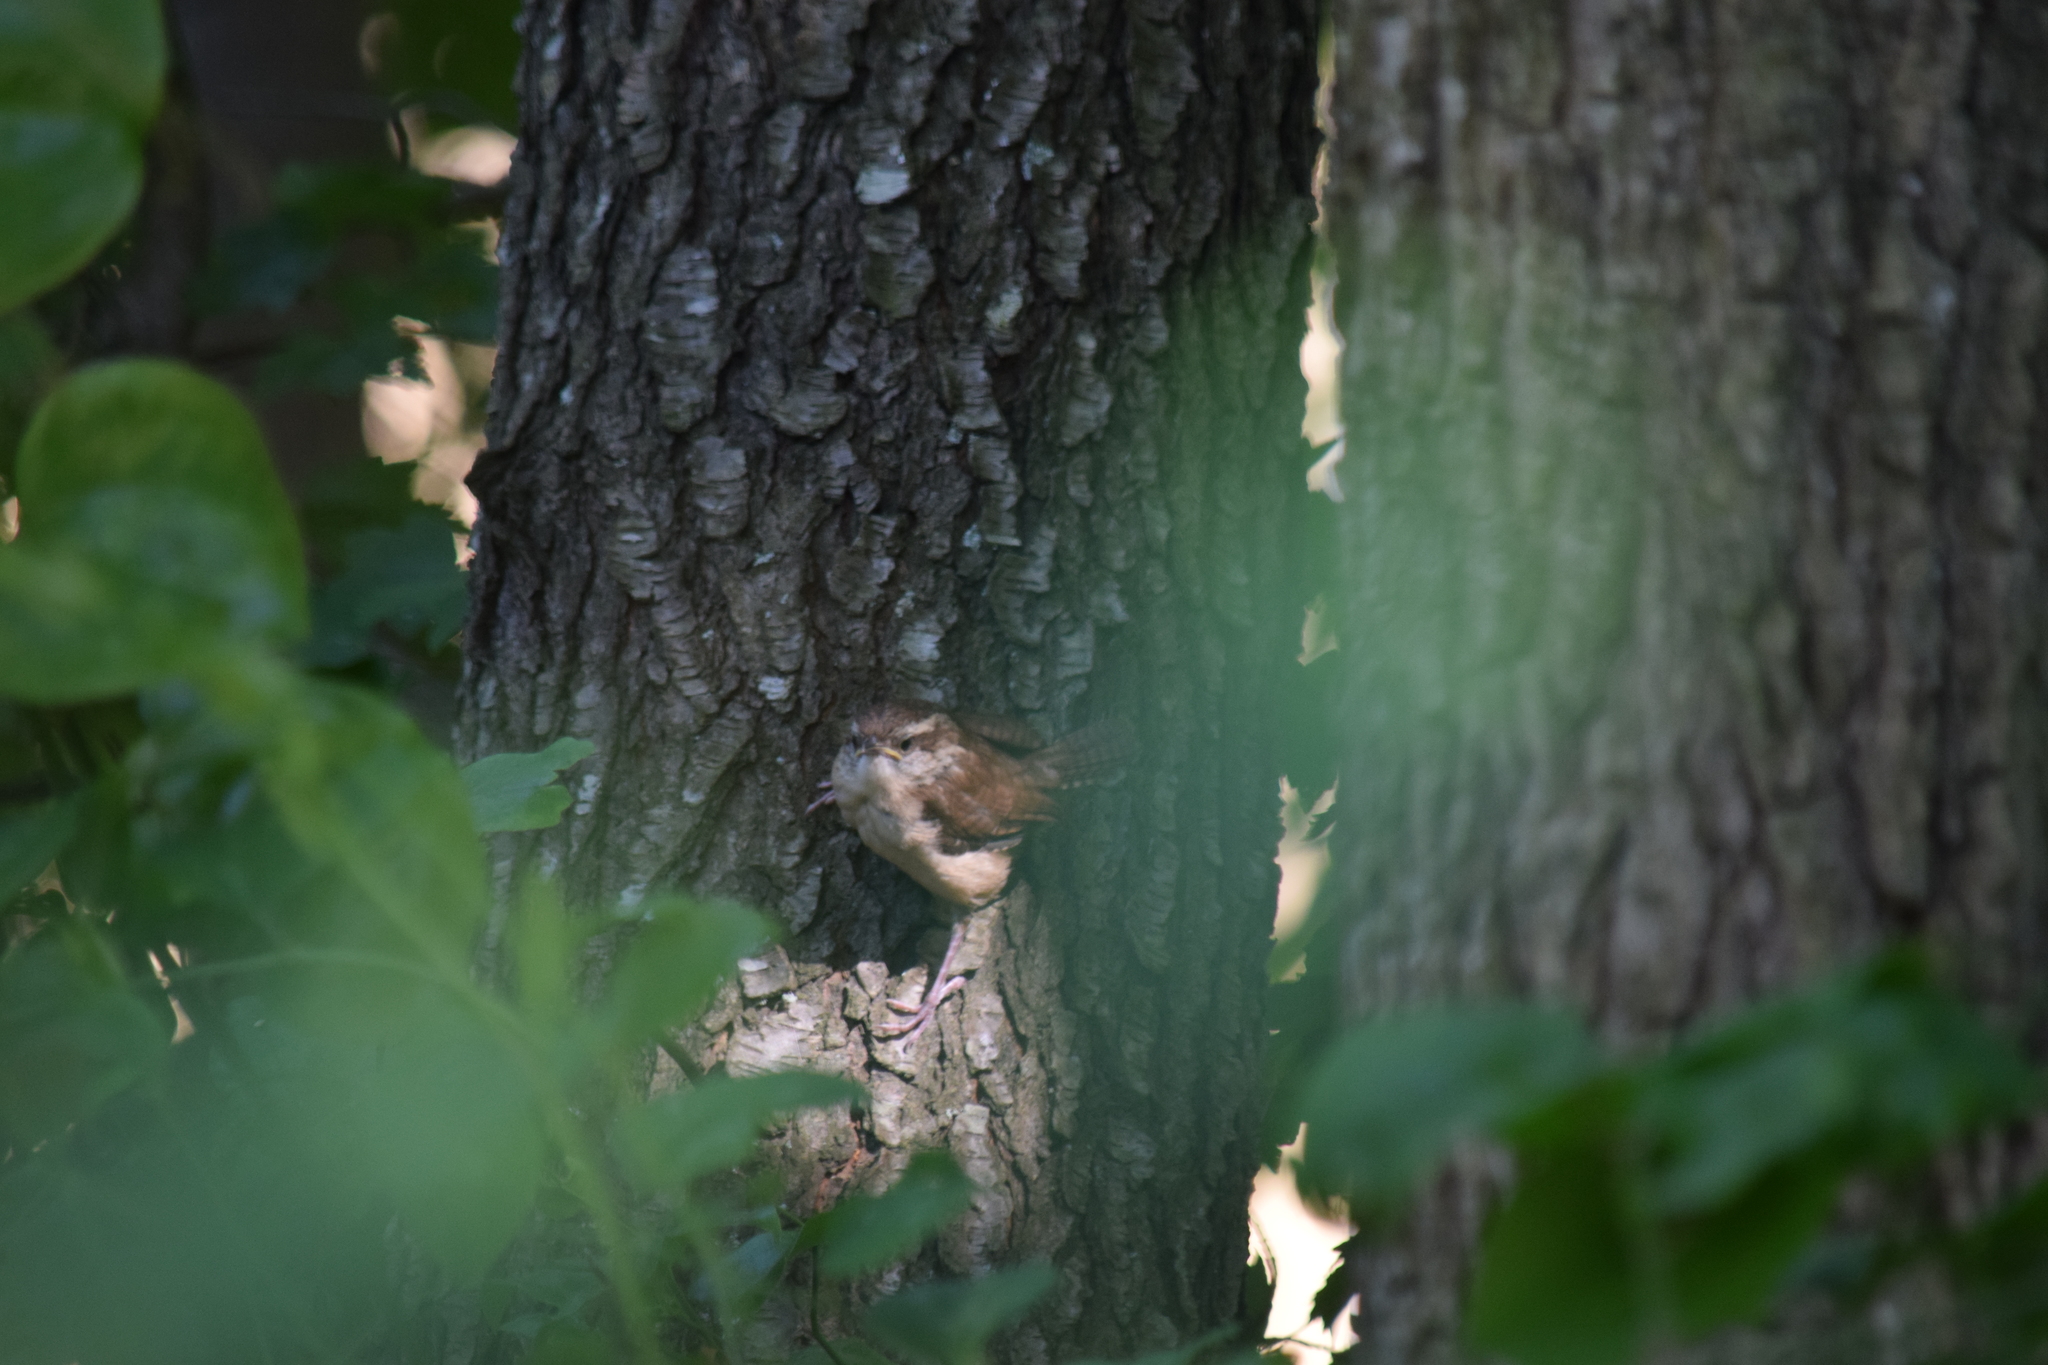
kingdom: Animalia
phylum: Chordata
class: Aves
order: Passeriformes
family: Troglodytidae
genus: Thryothorus
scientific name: Thryothorus ludovicianus
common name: Carolina wren
